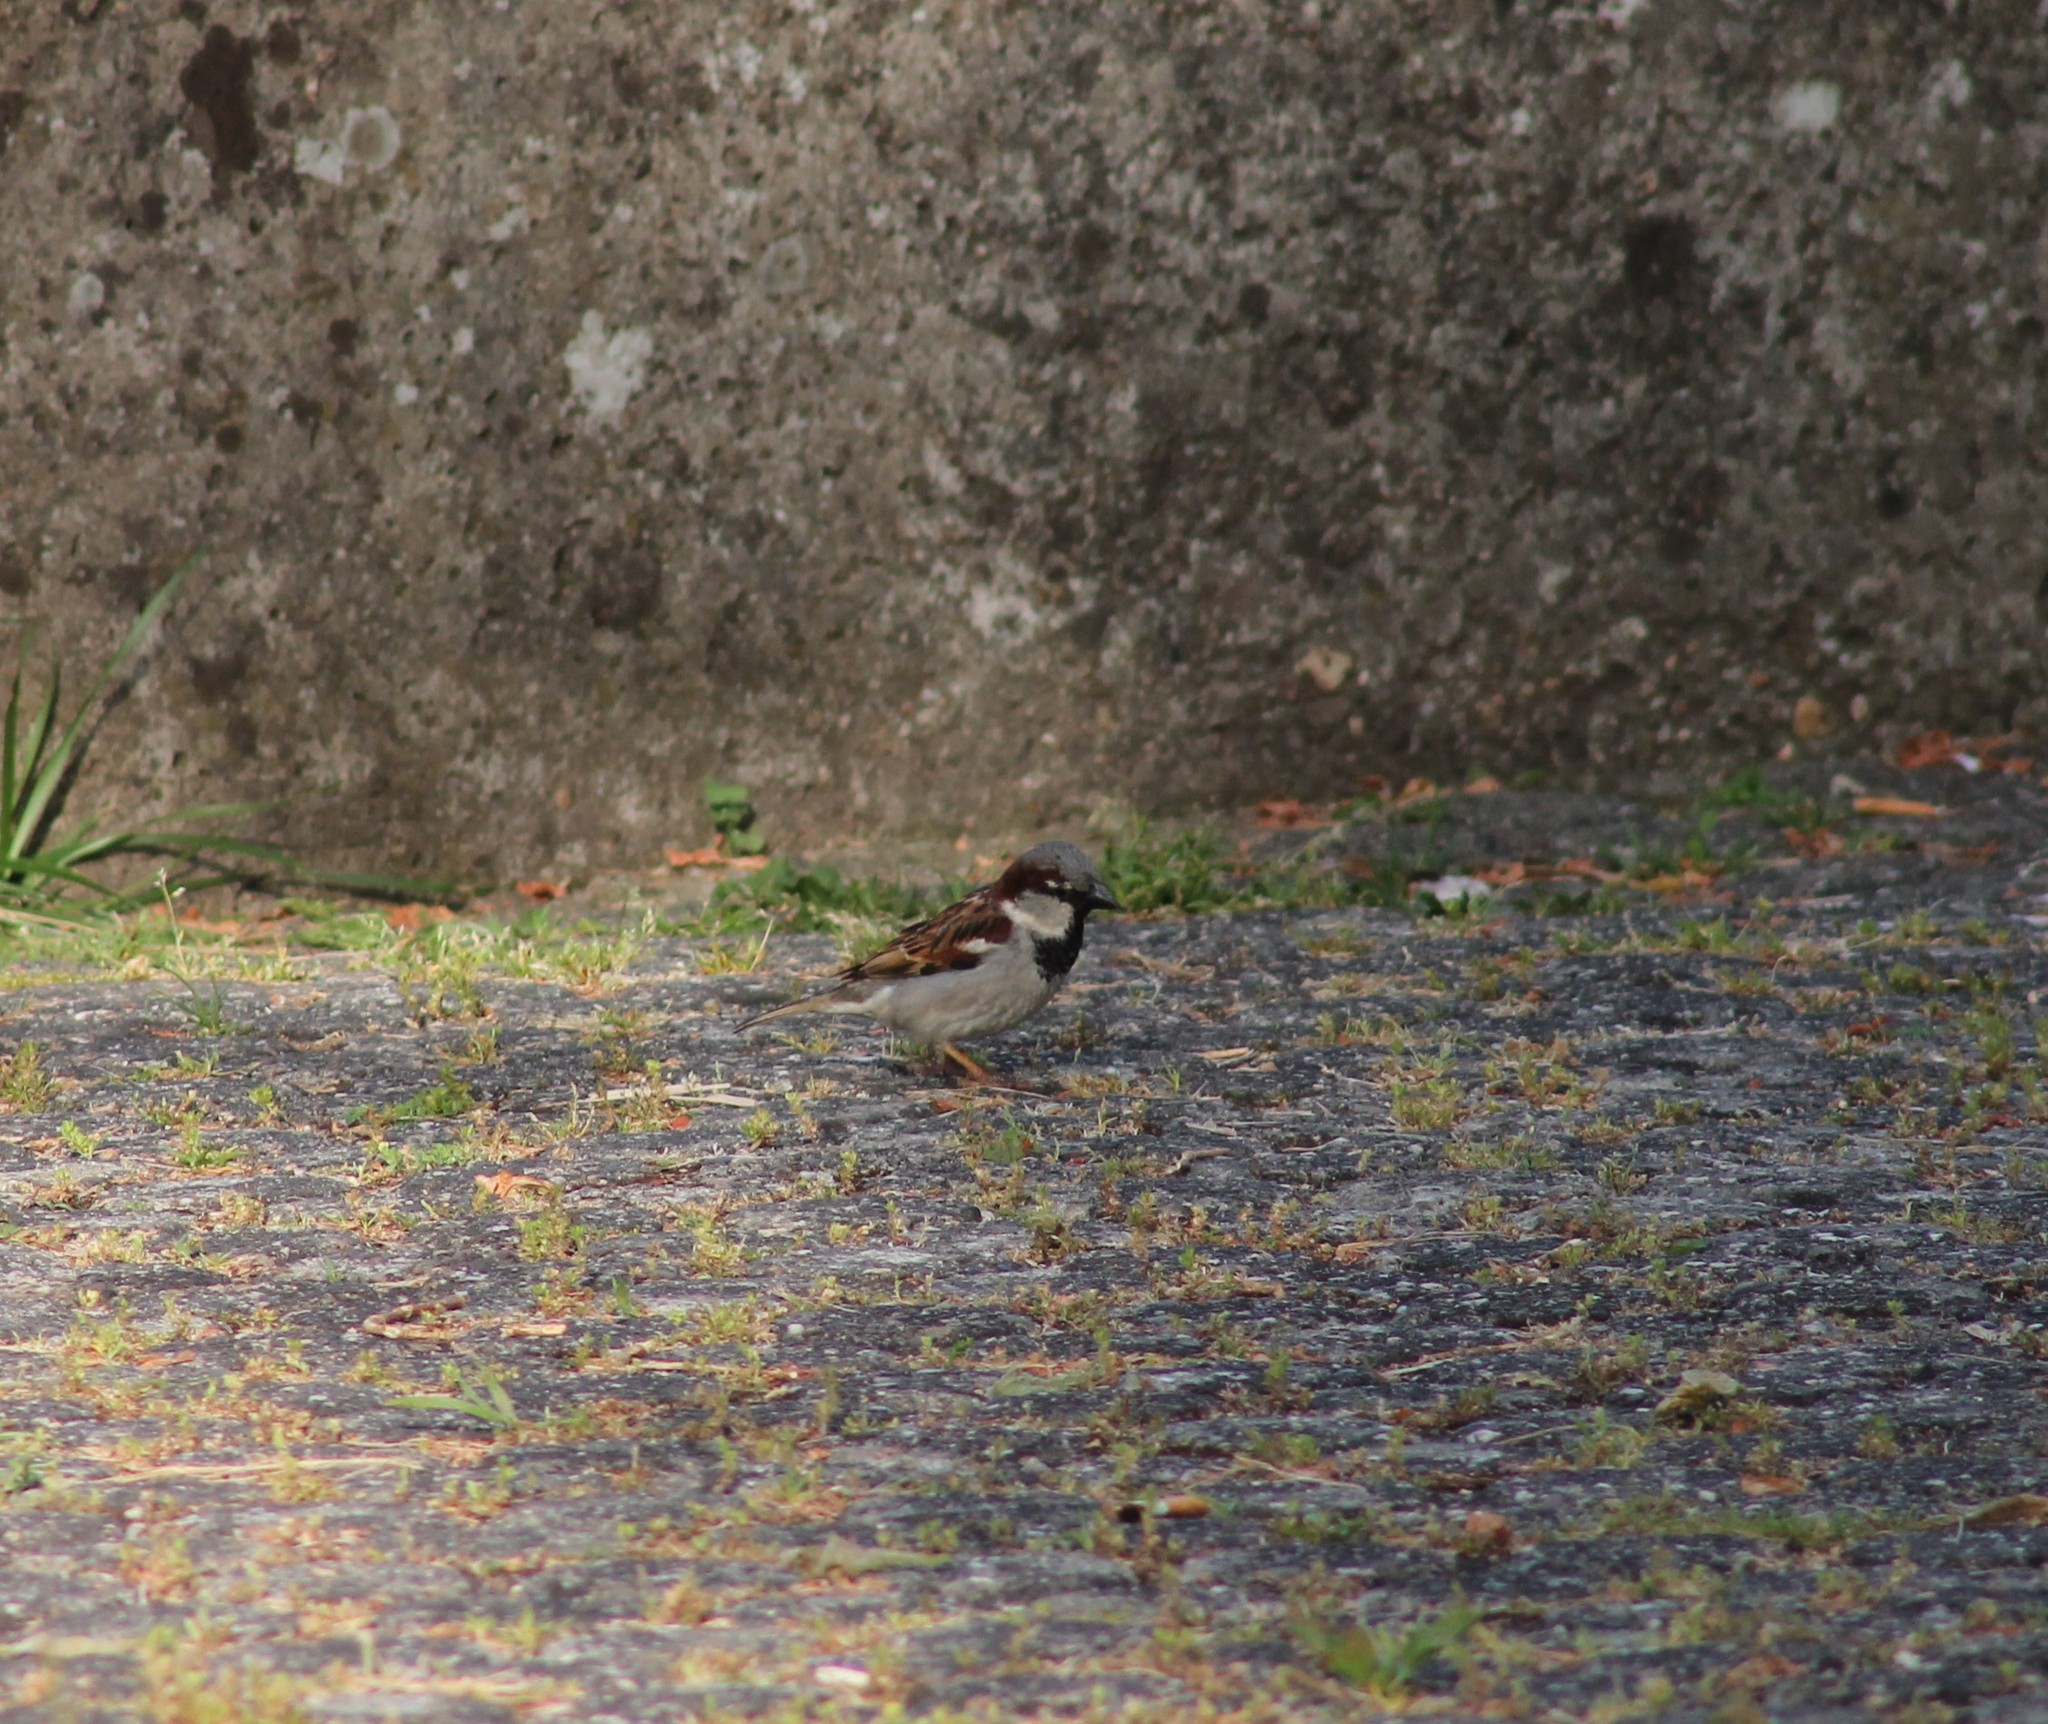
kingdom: Animalia
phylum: Chordata
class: Aves
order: Passeriformes
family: Passeridae
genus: Passer
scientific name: Passer domesticus
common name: House sparrow
